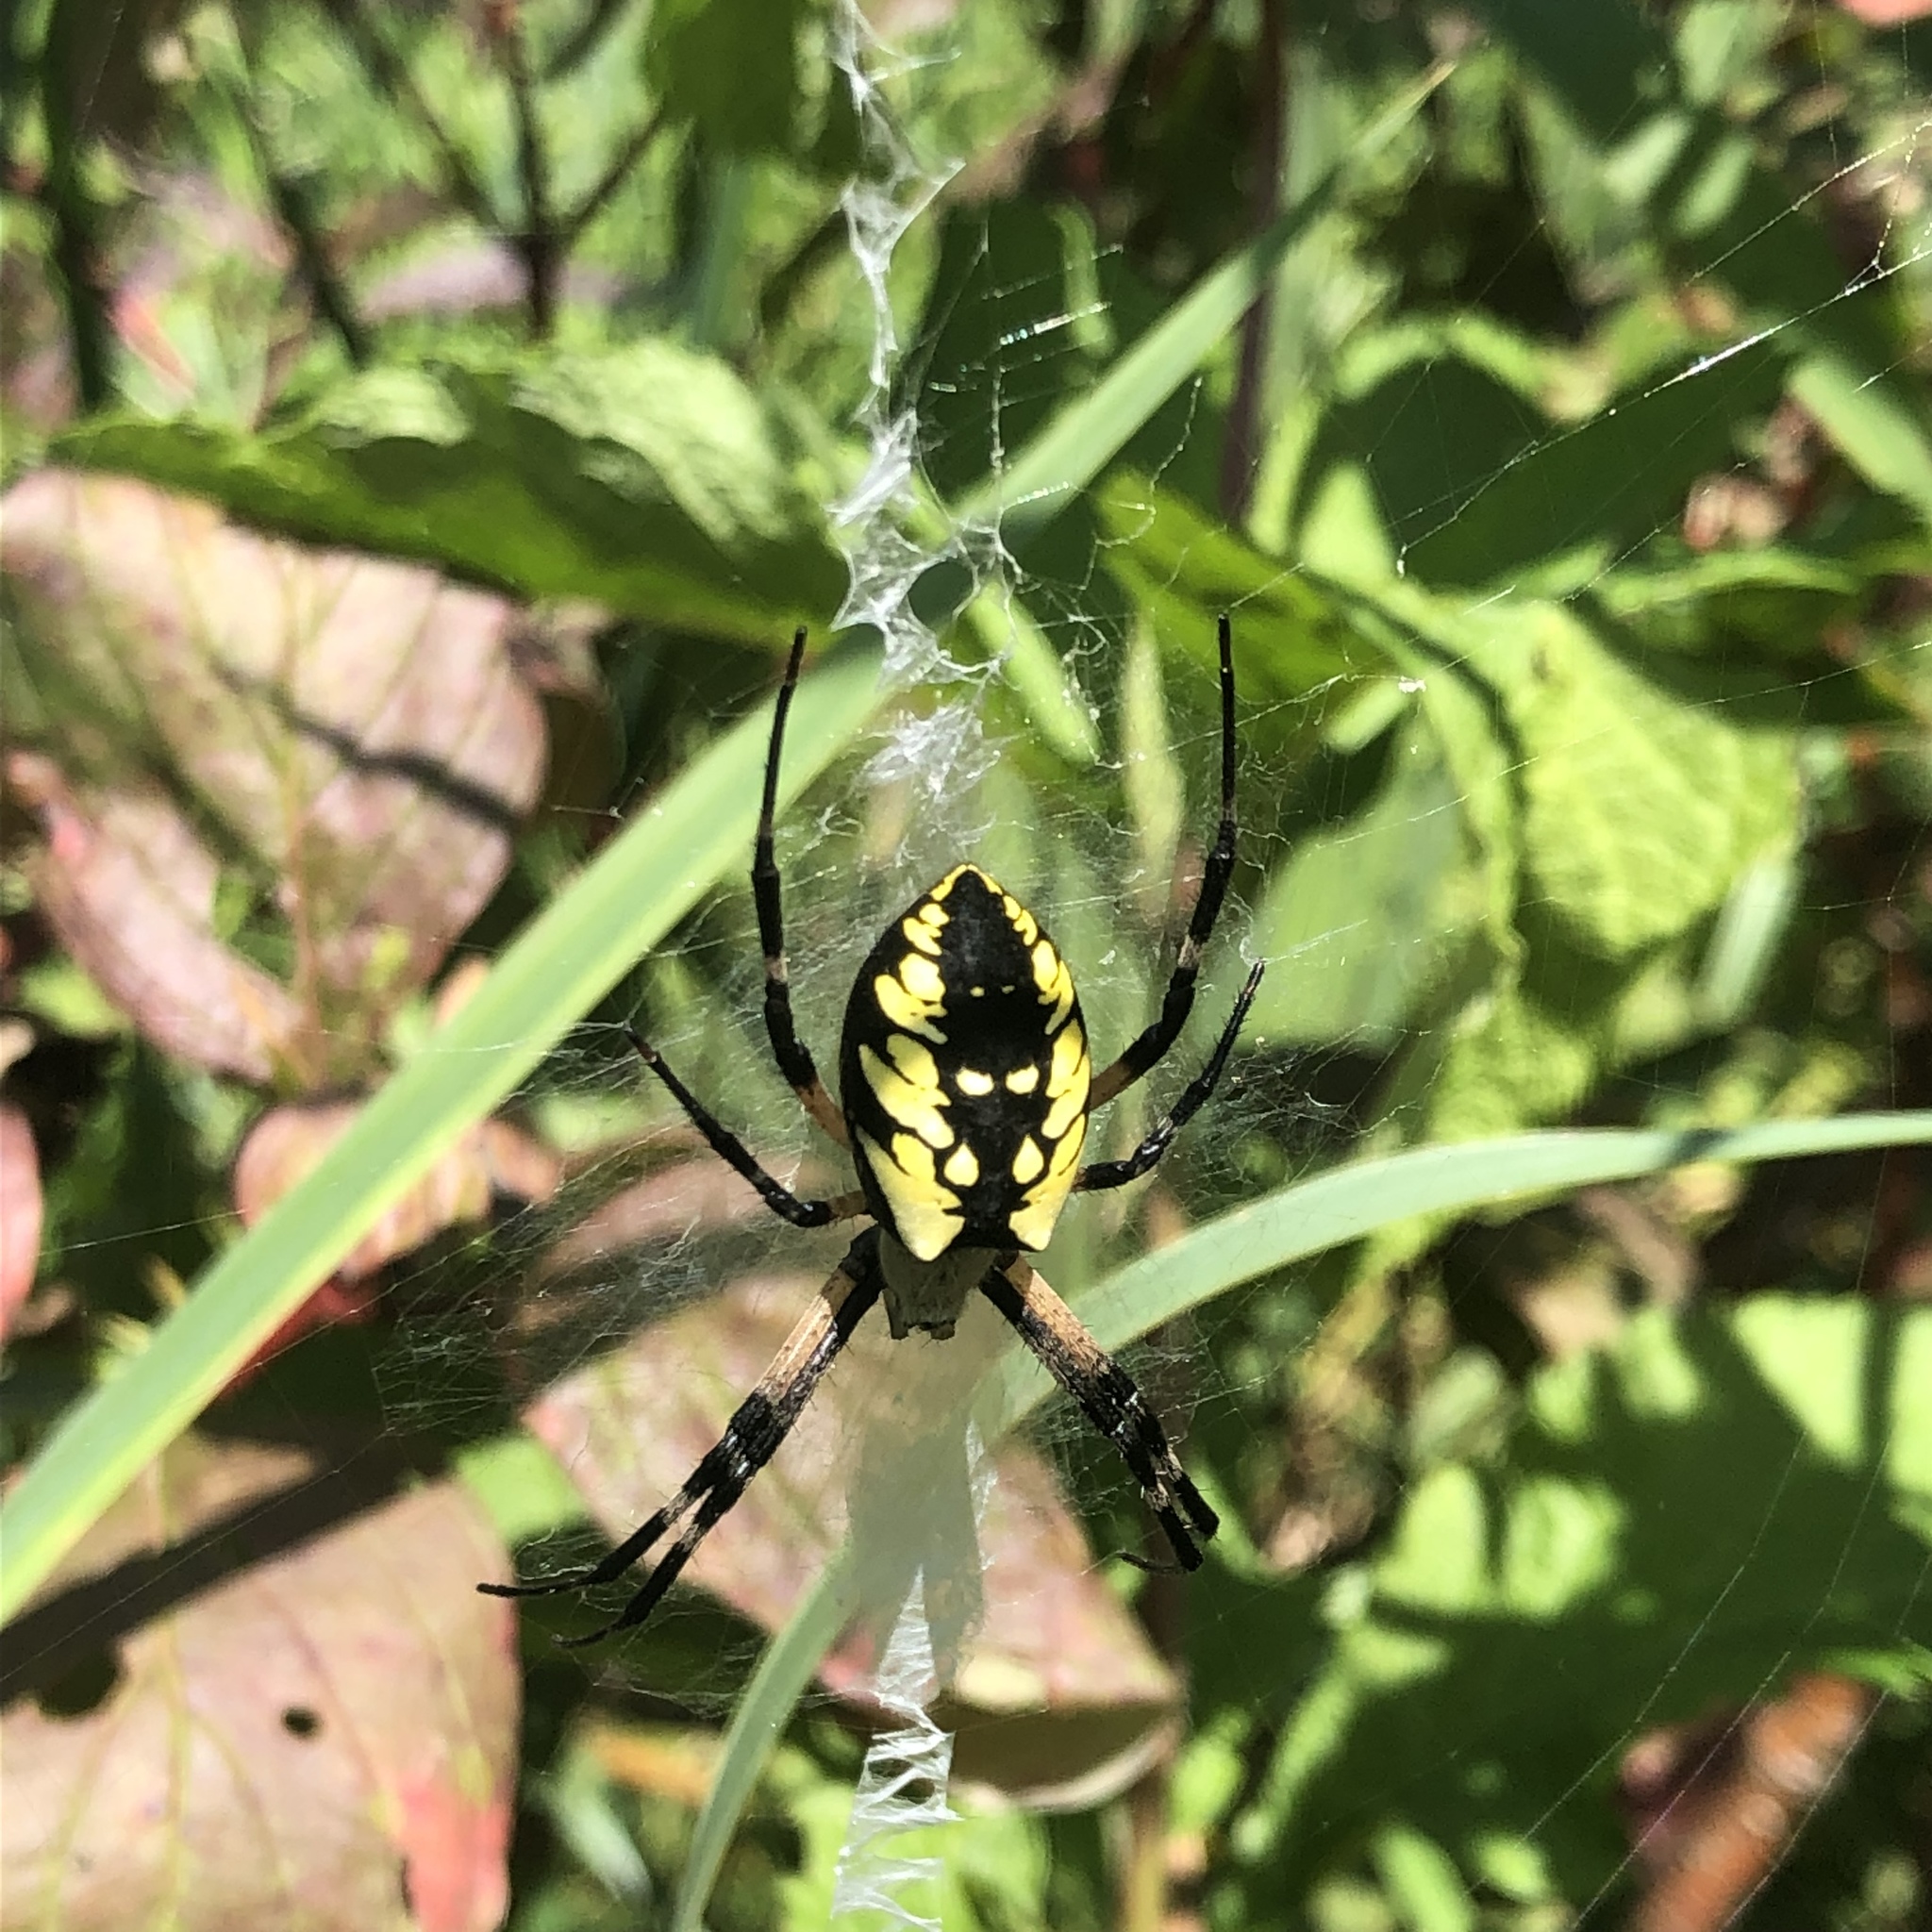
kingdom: Animalia
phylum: Arthropoda
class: Arachnida
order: Araneae
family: Araneidae
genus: Argiope
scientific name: Argiope aurantia
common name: Orb weavers
